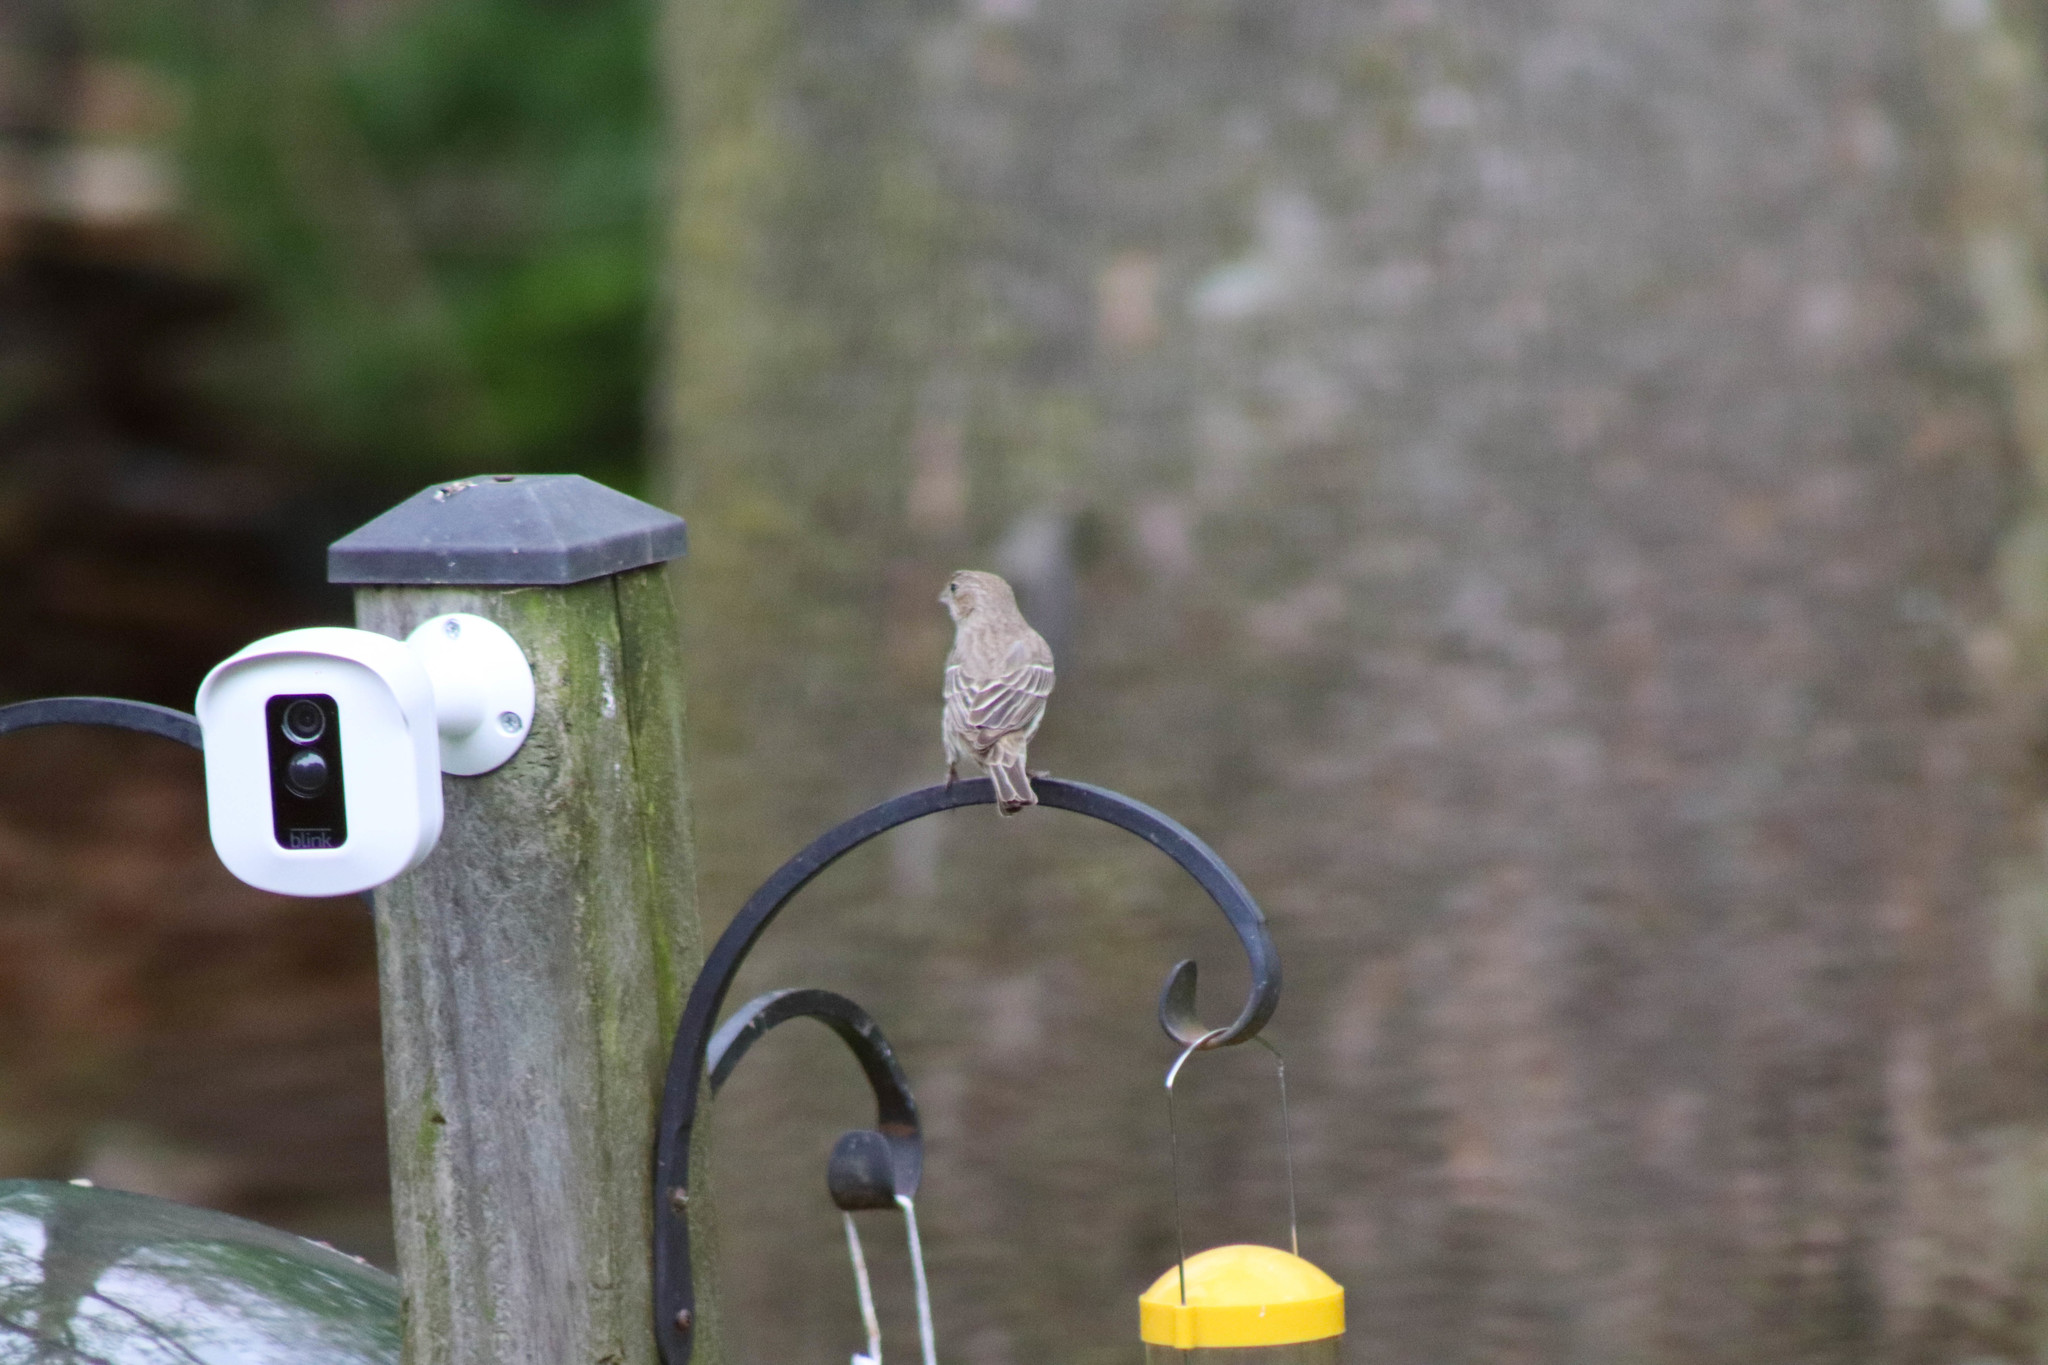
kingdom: Animalia
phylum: Chordata
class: Aves
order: Passeriformes
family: Fringillidae
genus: Haemorhous
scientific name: Haemorhous mexicanus
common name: House finch
